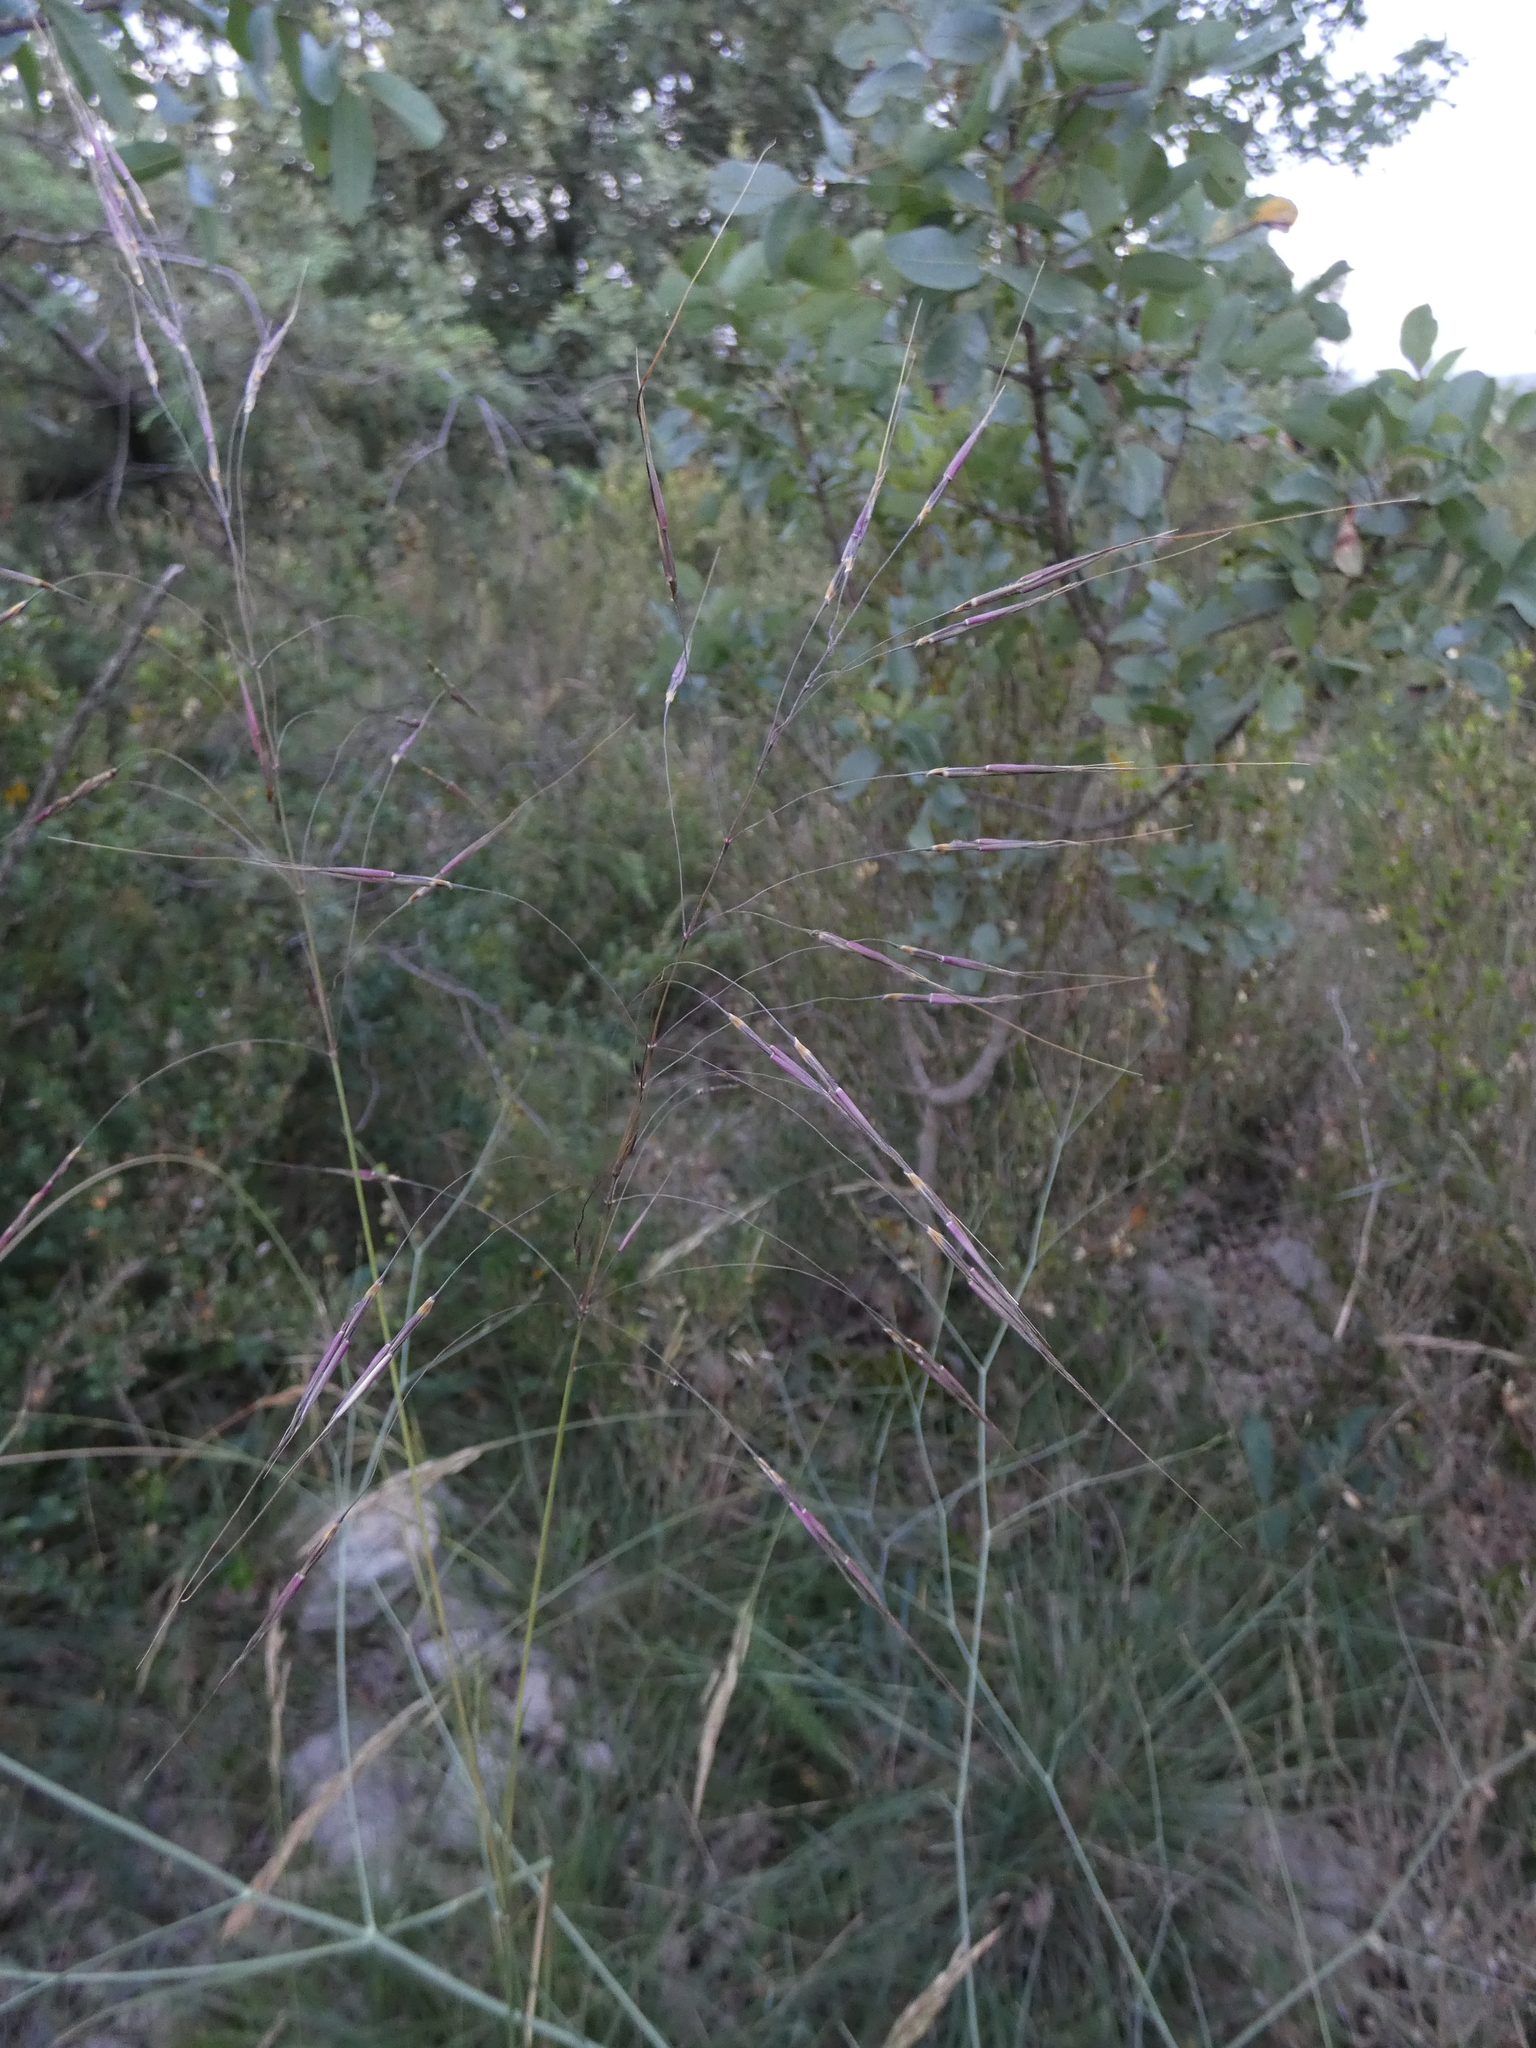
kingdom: Plantae
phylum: Tracheophyta
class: Liliopsida
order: Poales
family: Poaceae
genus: Chrysopogon
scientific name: Chrysopogon gryllus
